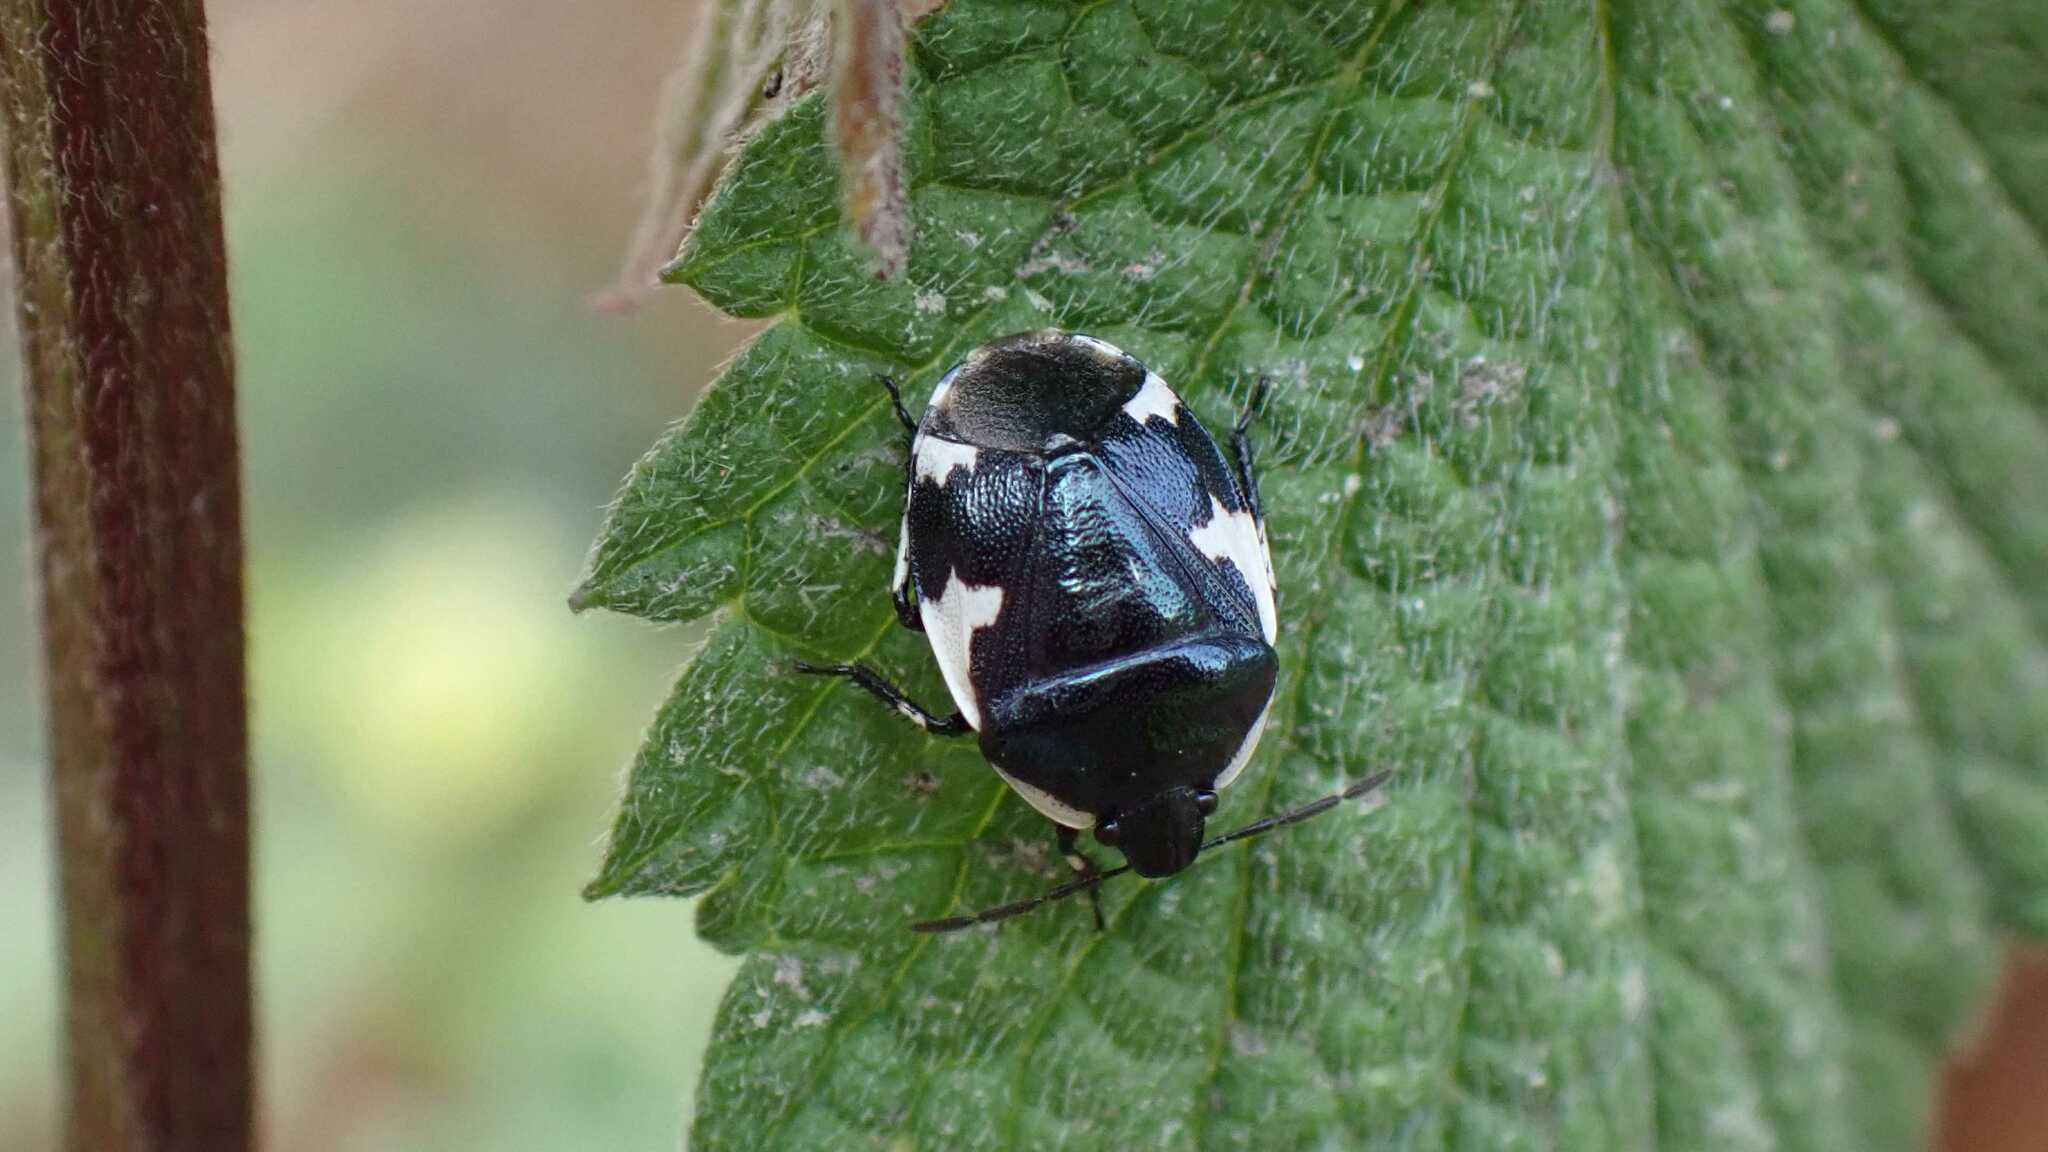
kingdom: Animalia
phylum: Arthropoda
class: Insecta
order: Hemiptera
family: Cydnidae
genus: Tritomegas
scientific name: Tritomegas sexmaculatus
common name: Rambur's pied shieldbug
